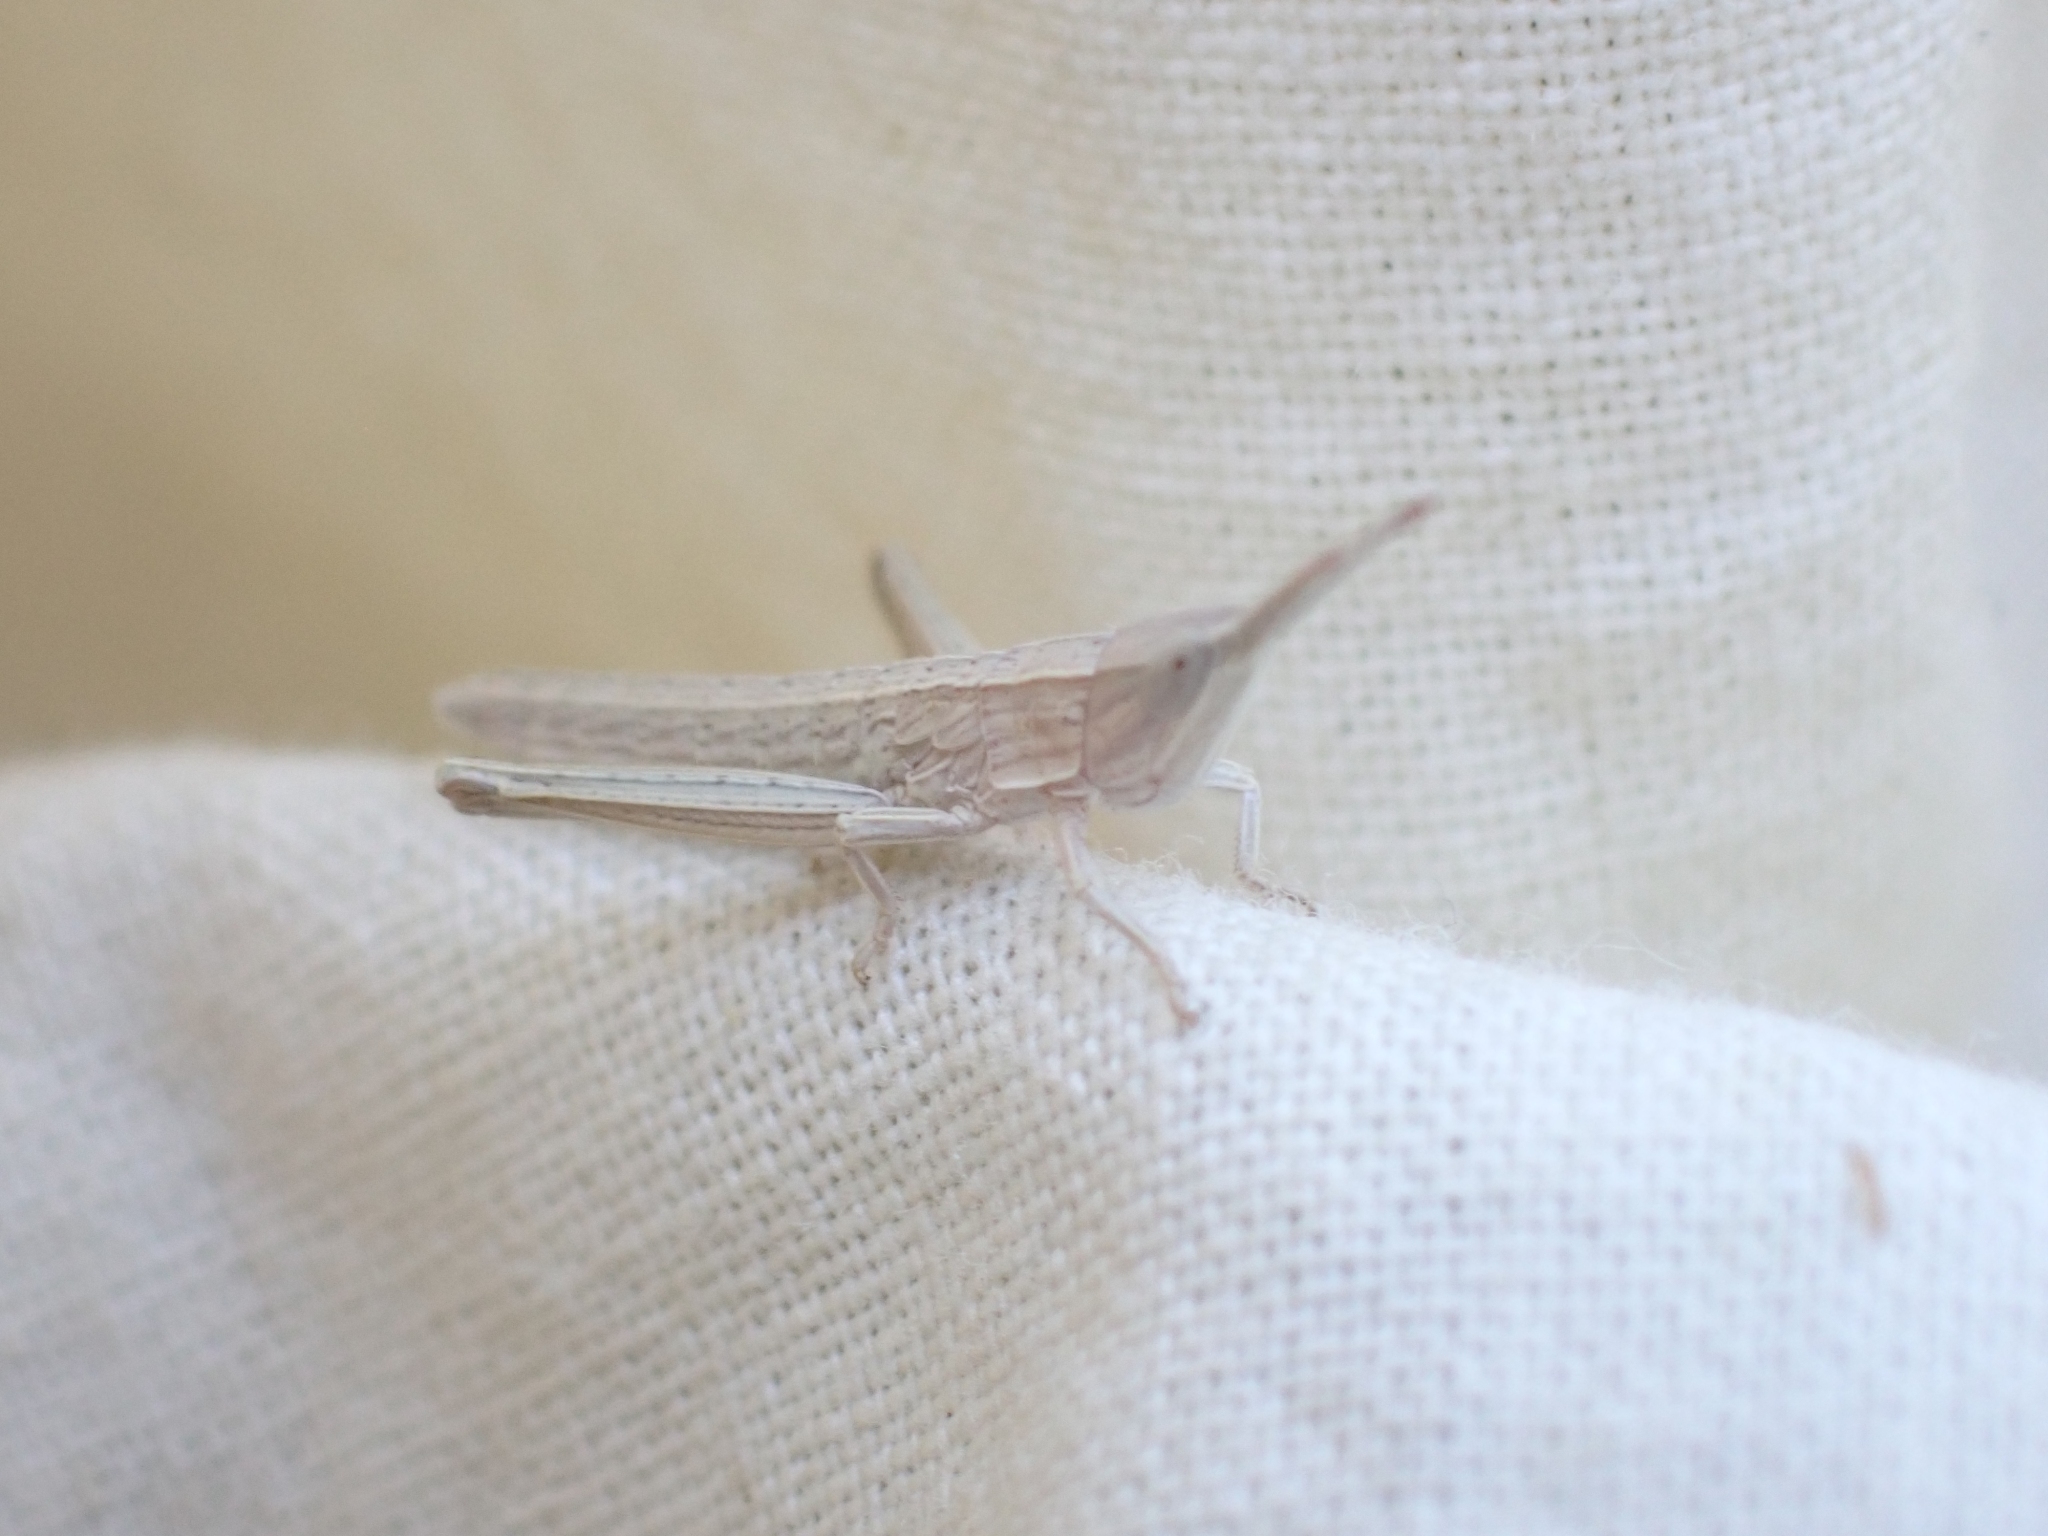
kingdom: Animalia
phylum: Arthropoda
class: Insecta
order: Orthoptera
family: Acrididae
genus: Pseudopomala
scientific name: Pseudopomala brachyptera
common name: Bunchgrass grasshopper
